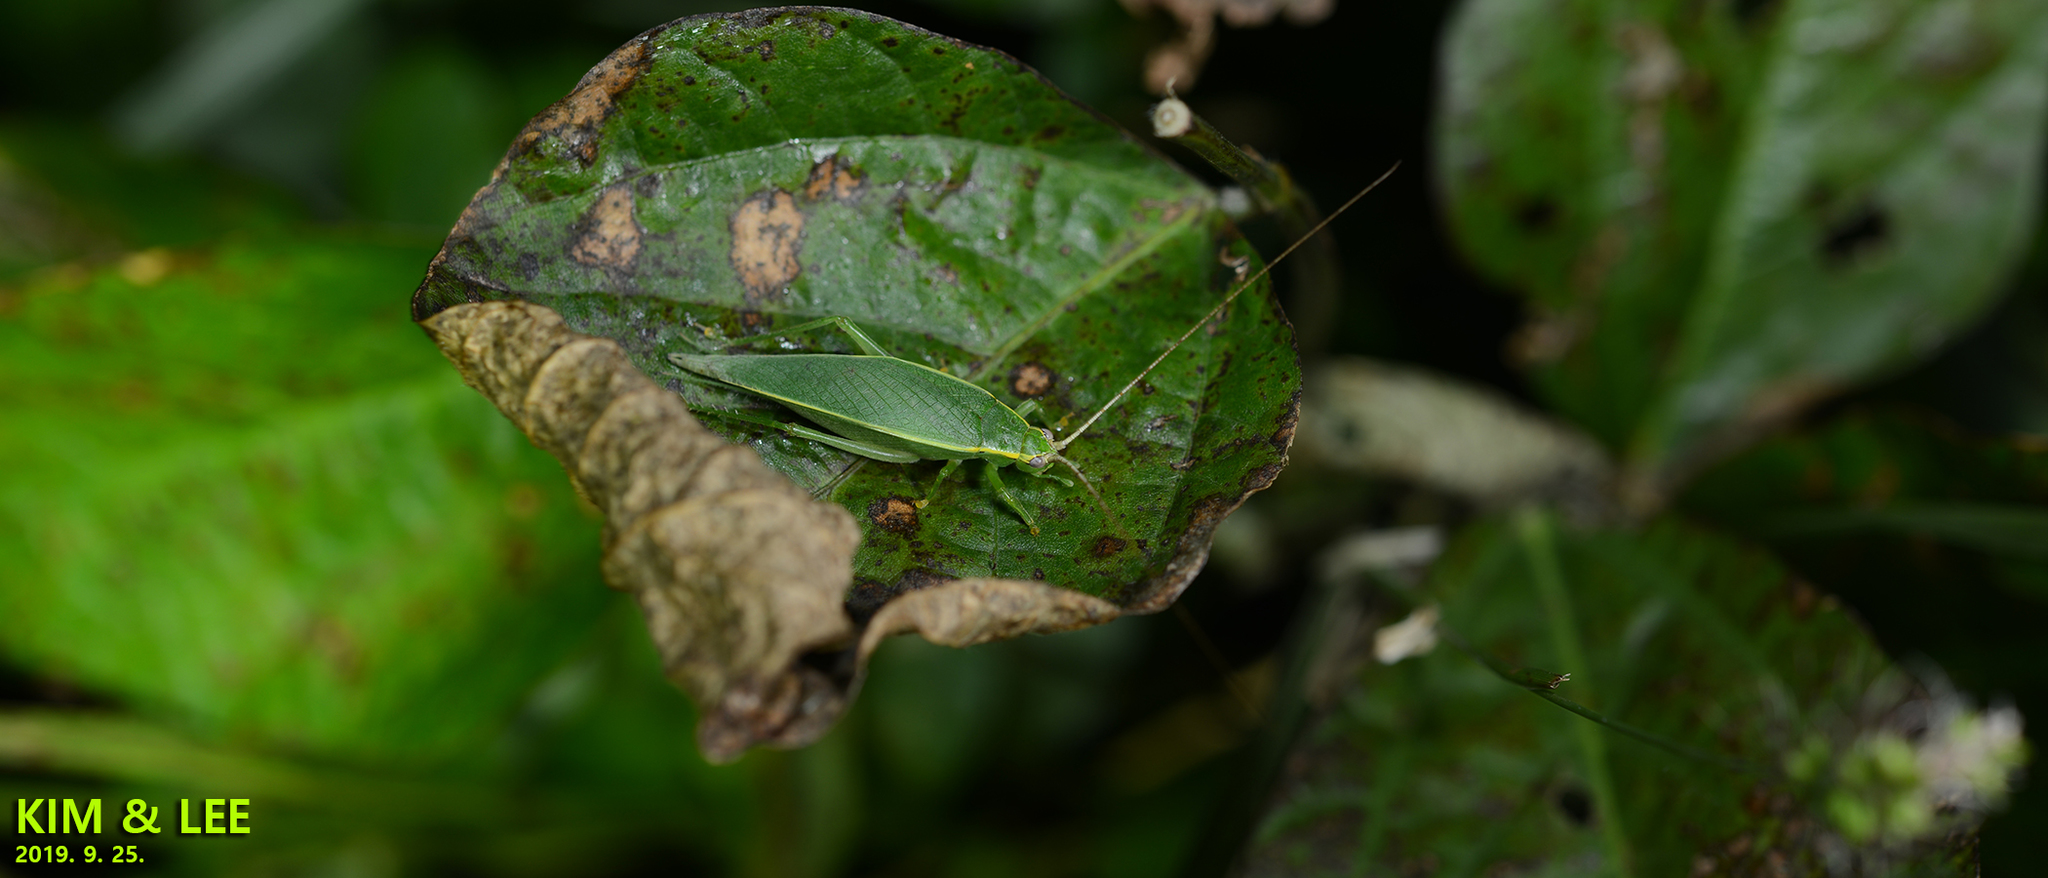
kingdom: Animalia
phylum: Arthropoda
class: Insecta
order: Orthoptera
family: Gryllidae
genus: Truljalia
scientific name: Truljalia hibinonis
